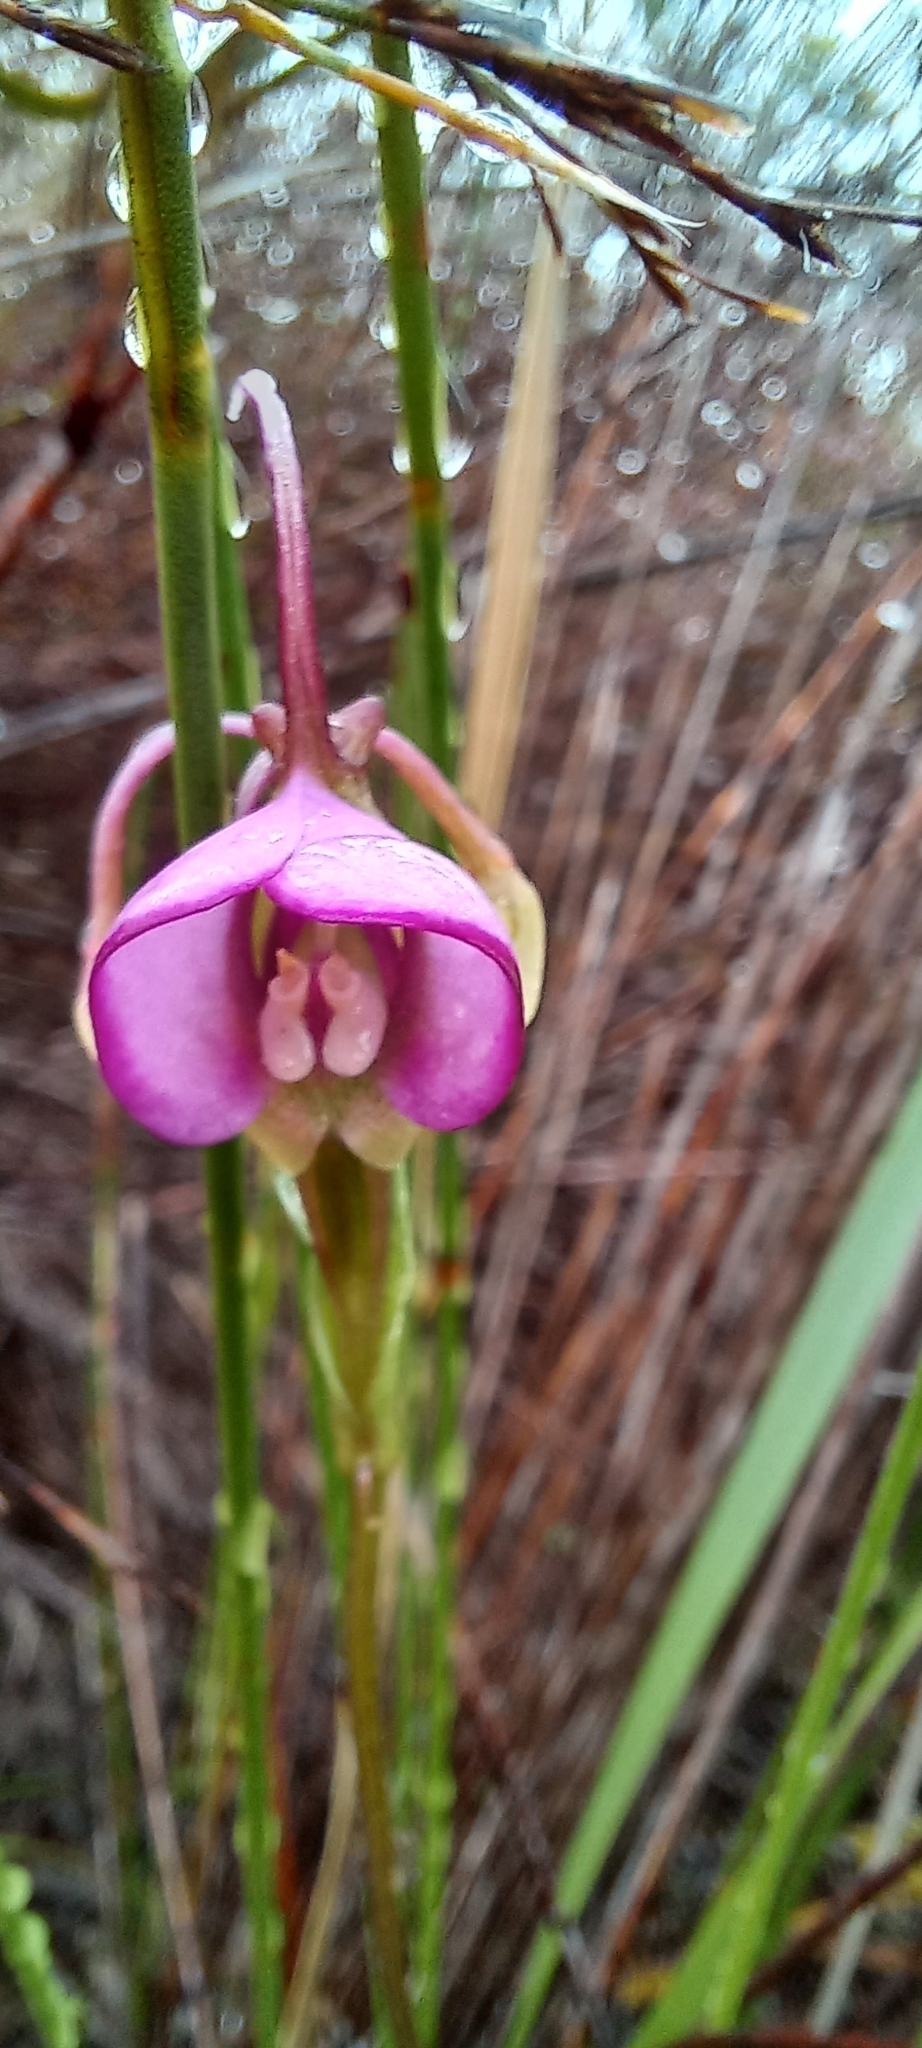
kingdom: Plantae
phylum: Tracheophyta
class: Liliopsida
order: Asparagales
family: Orchidaceae
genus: Disperis
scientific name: Disperis capensis
